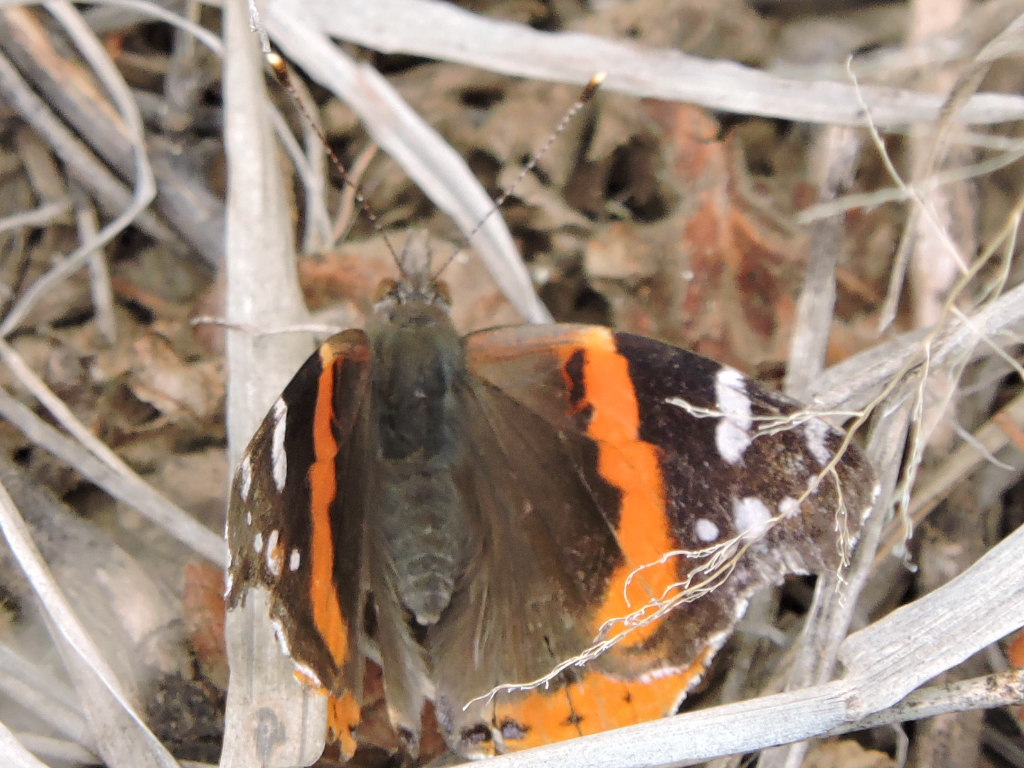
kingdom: Animalia
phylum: Arthropoda
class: Insecta
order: Lepidoptera
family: Nymphalidae
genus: Vanessa
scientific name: Vanessa atalanta
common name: Red admiral
